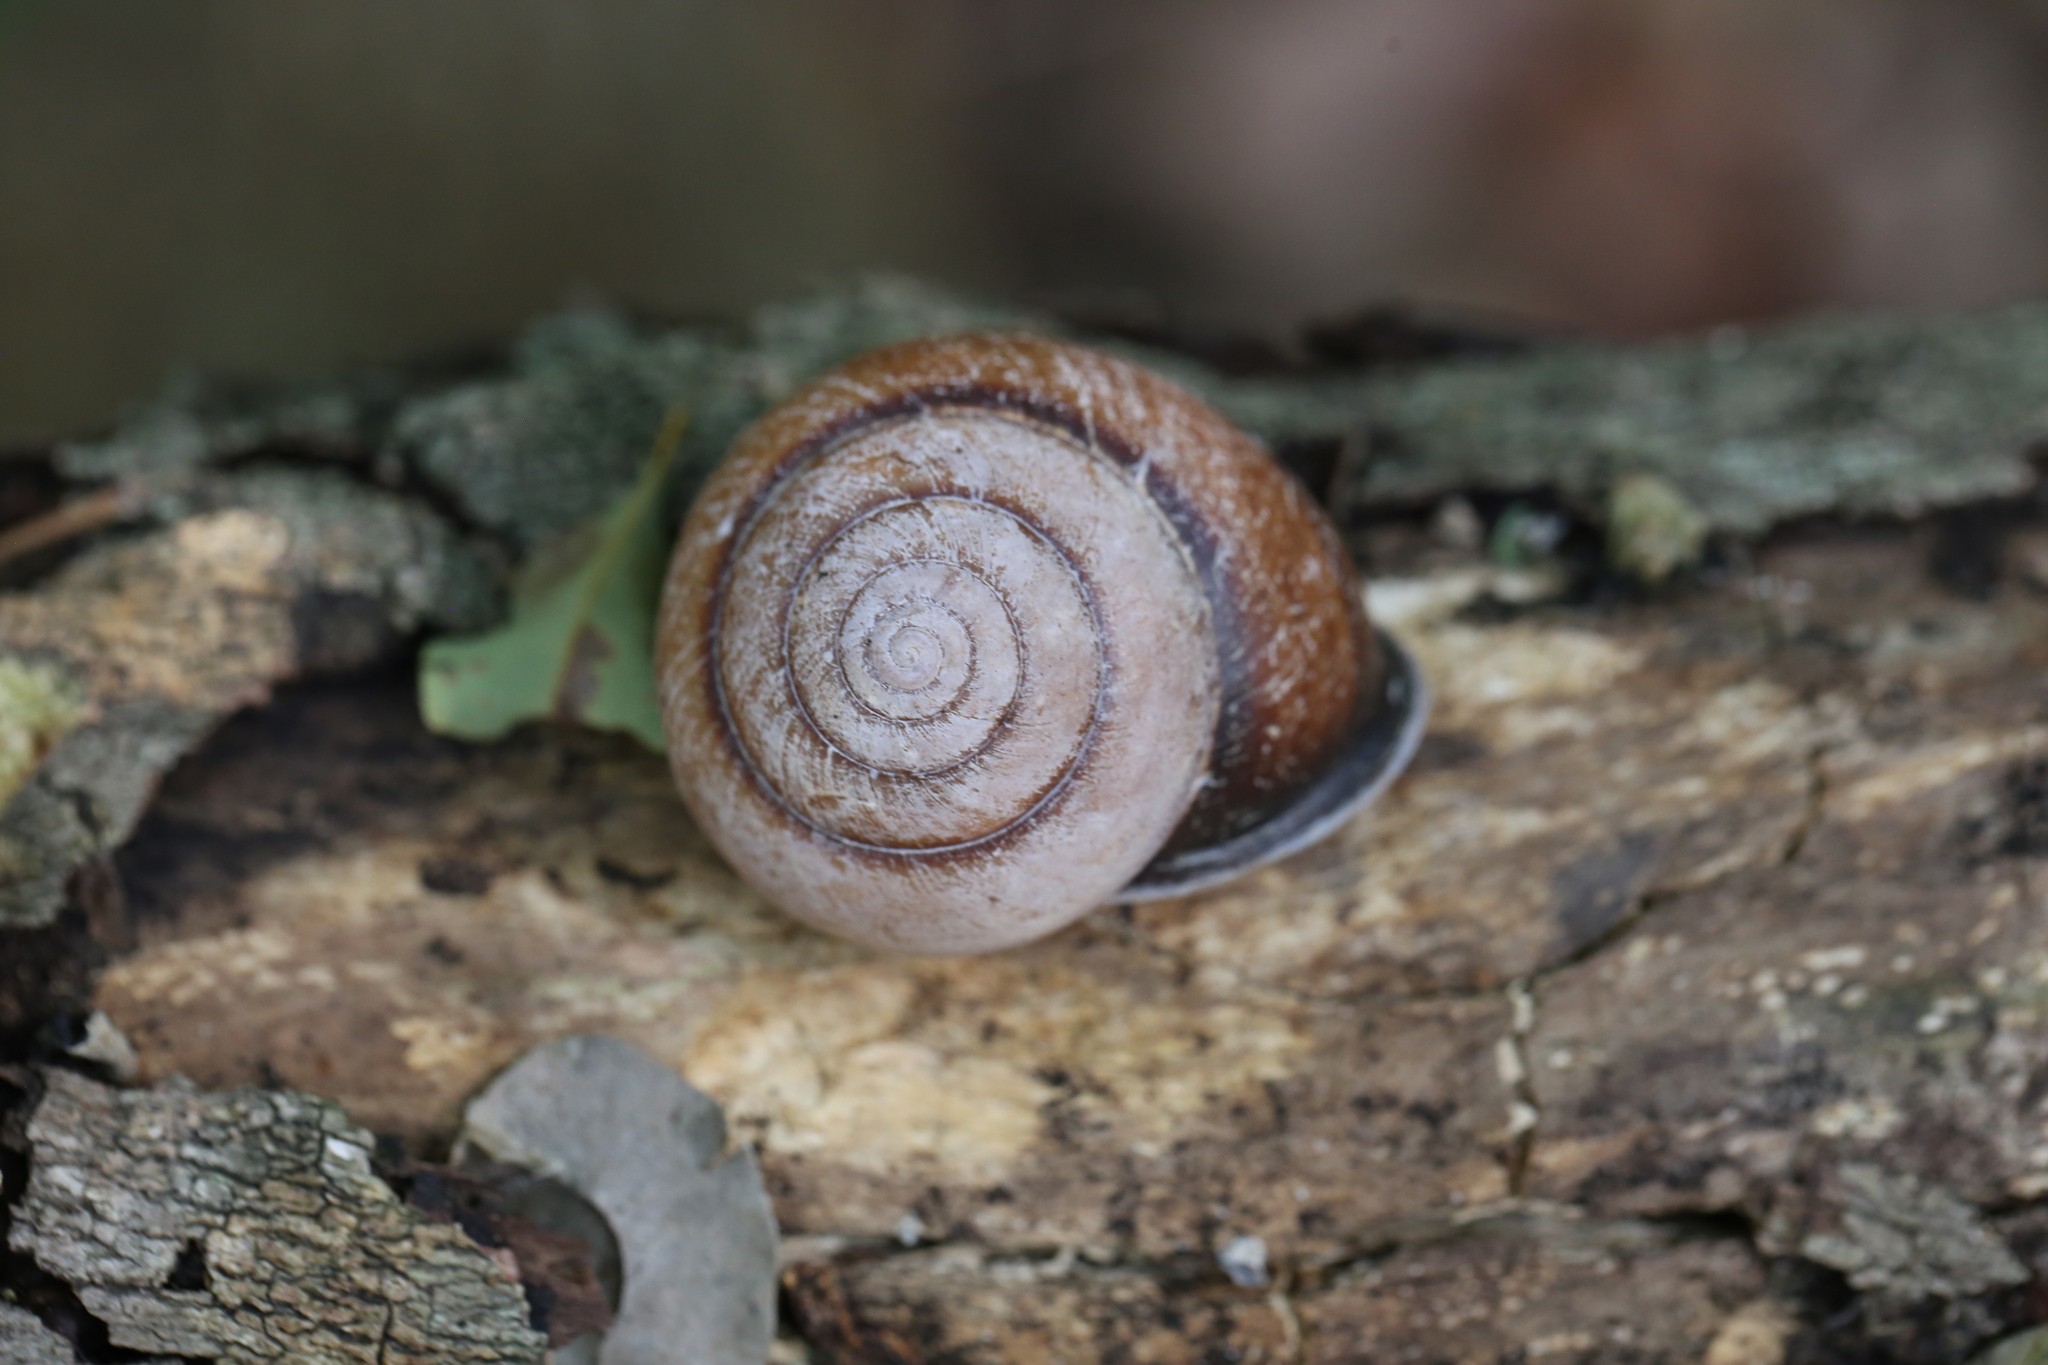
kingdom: Animalia
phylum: Mollusca
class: Gastropoda
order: Stylommatophora
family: Camaenidae
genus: Sphaerospira
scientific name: Sphaerospira fraseri
